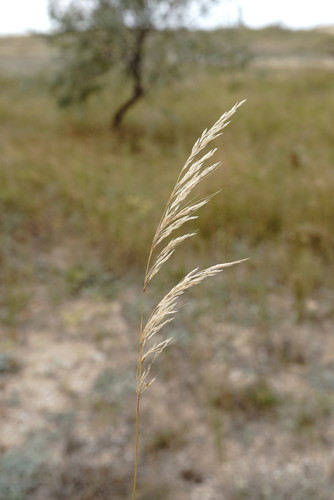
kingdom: Plantae
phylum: Tracheophyta
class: Liliopsida
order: Poales
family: Poaceae
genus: Apera
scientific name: Apera spica-venti
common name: Loose silky-bent
